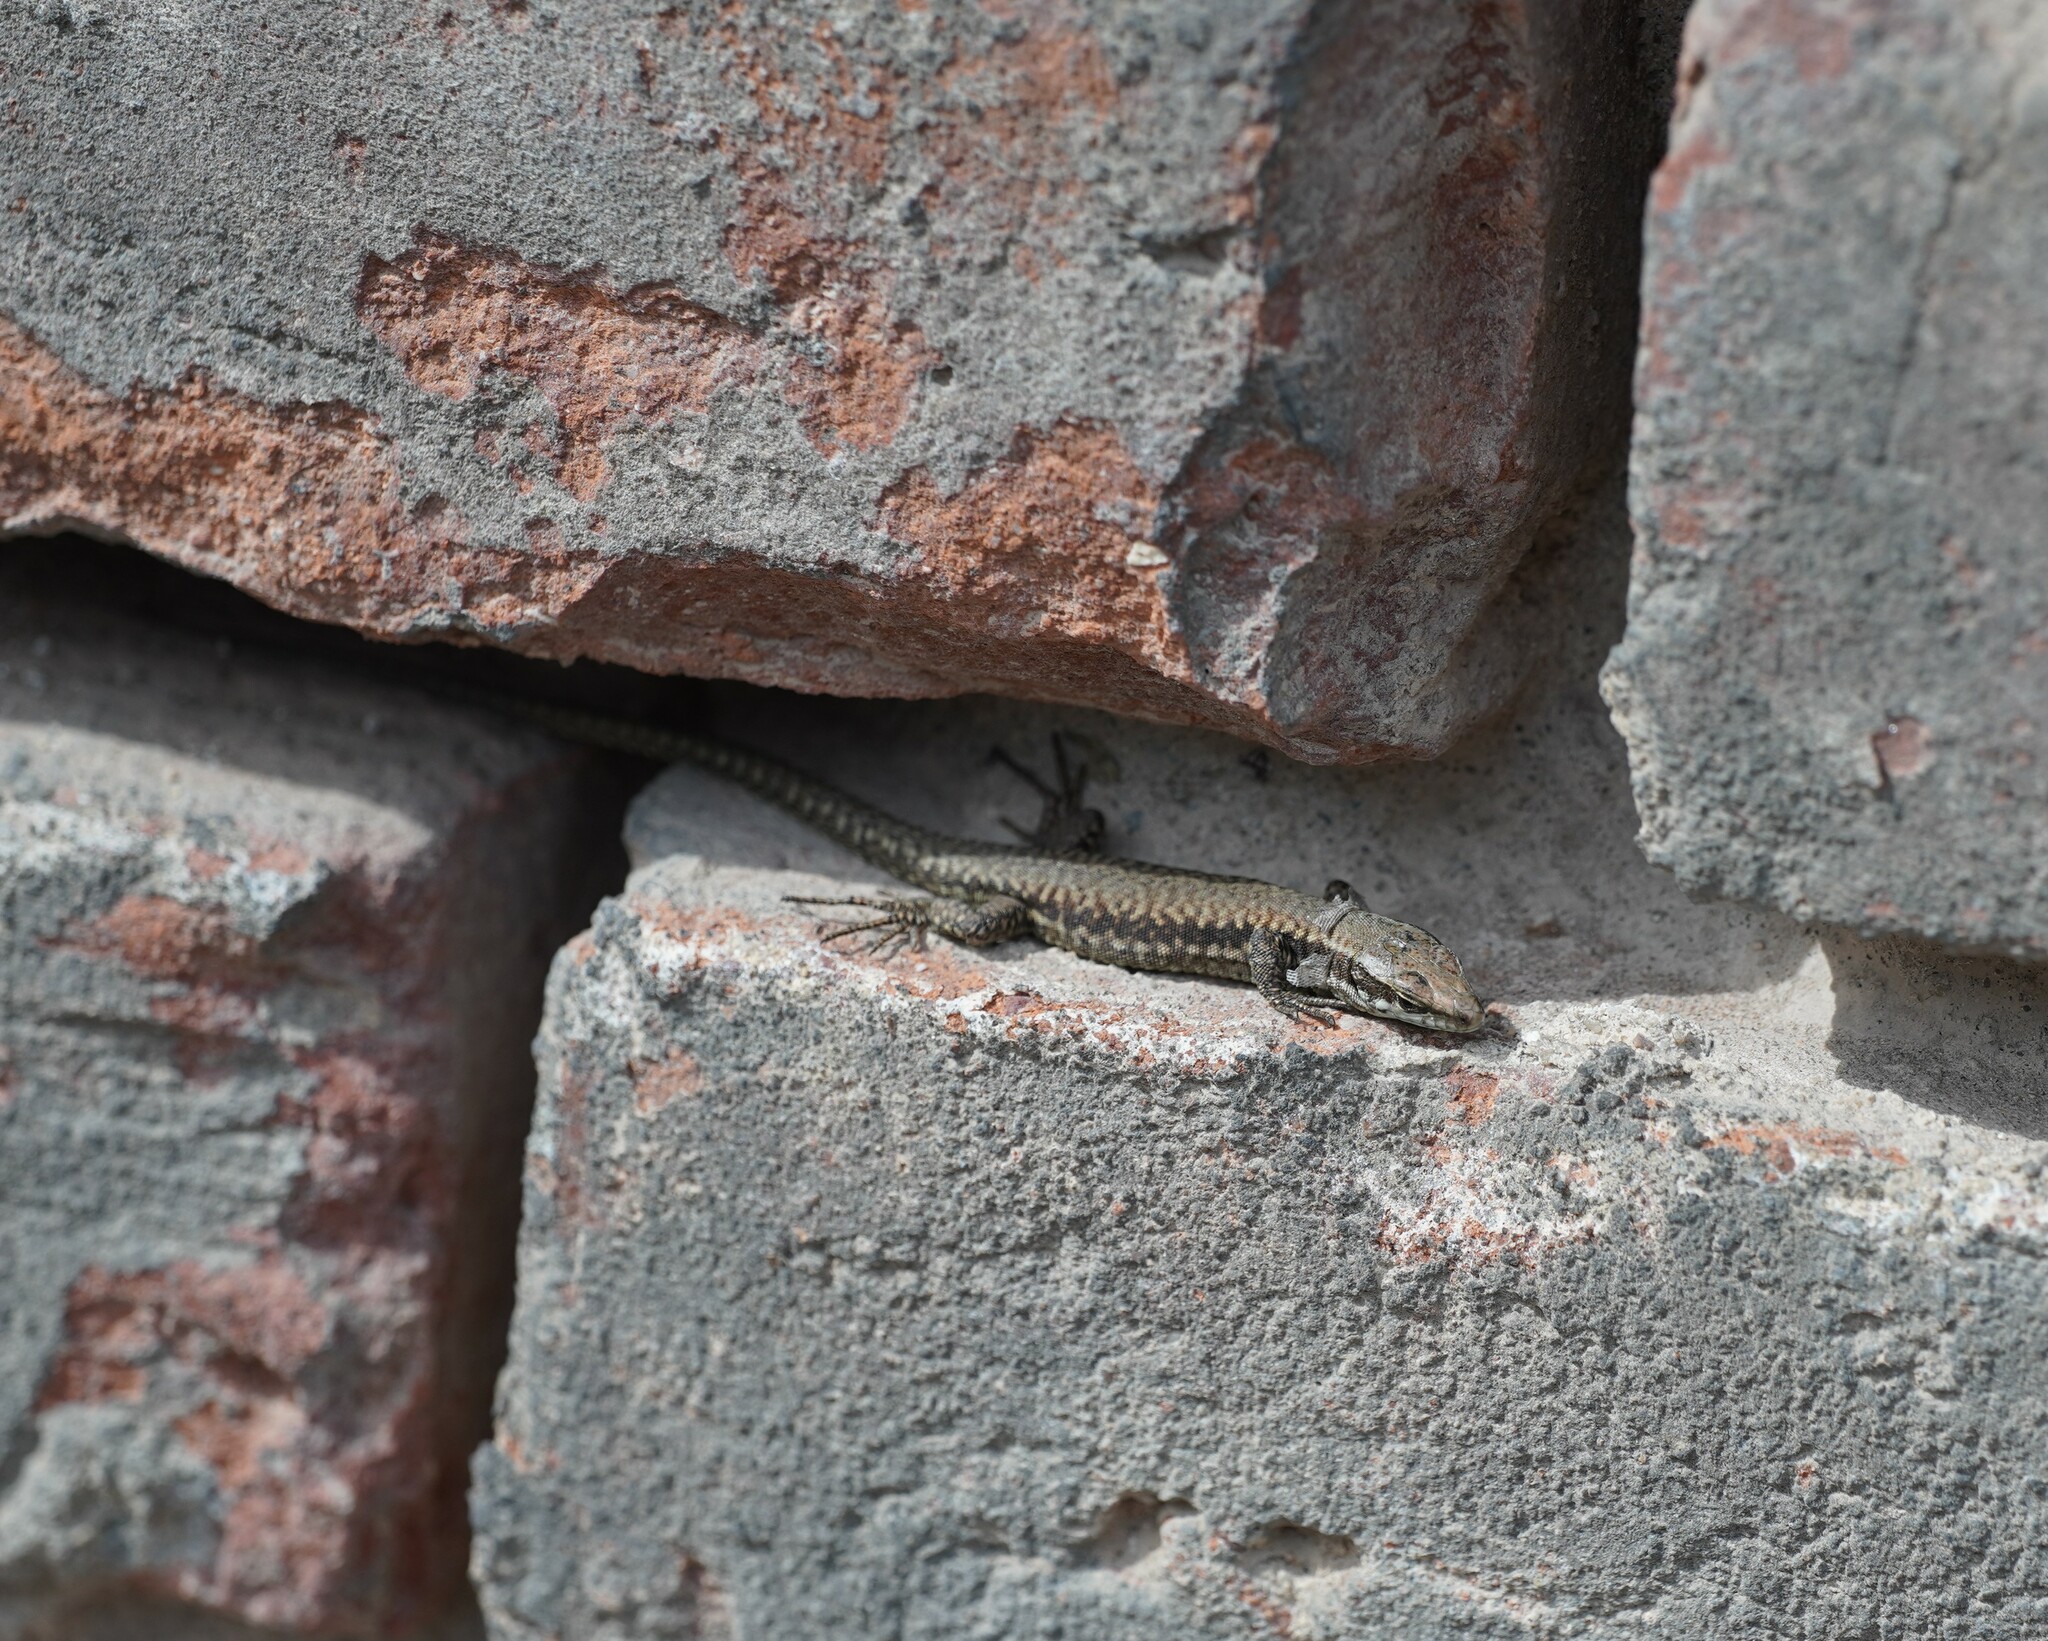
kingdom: Animalia
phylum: Chordata
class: Squamata
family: Lacertidae
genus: Podarcis
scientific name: Podarcis muralis
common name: Common wall lizard
